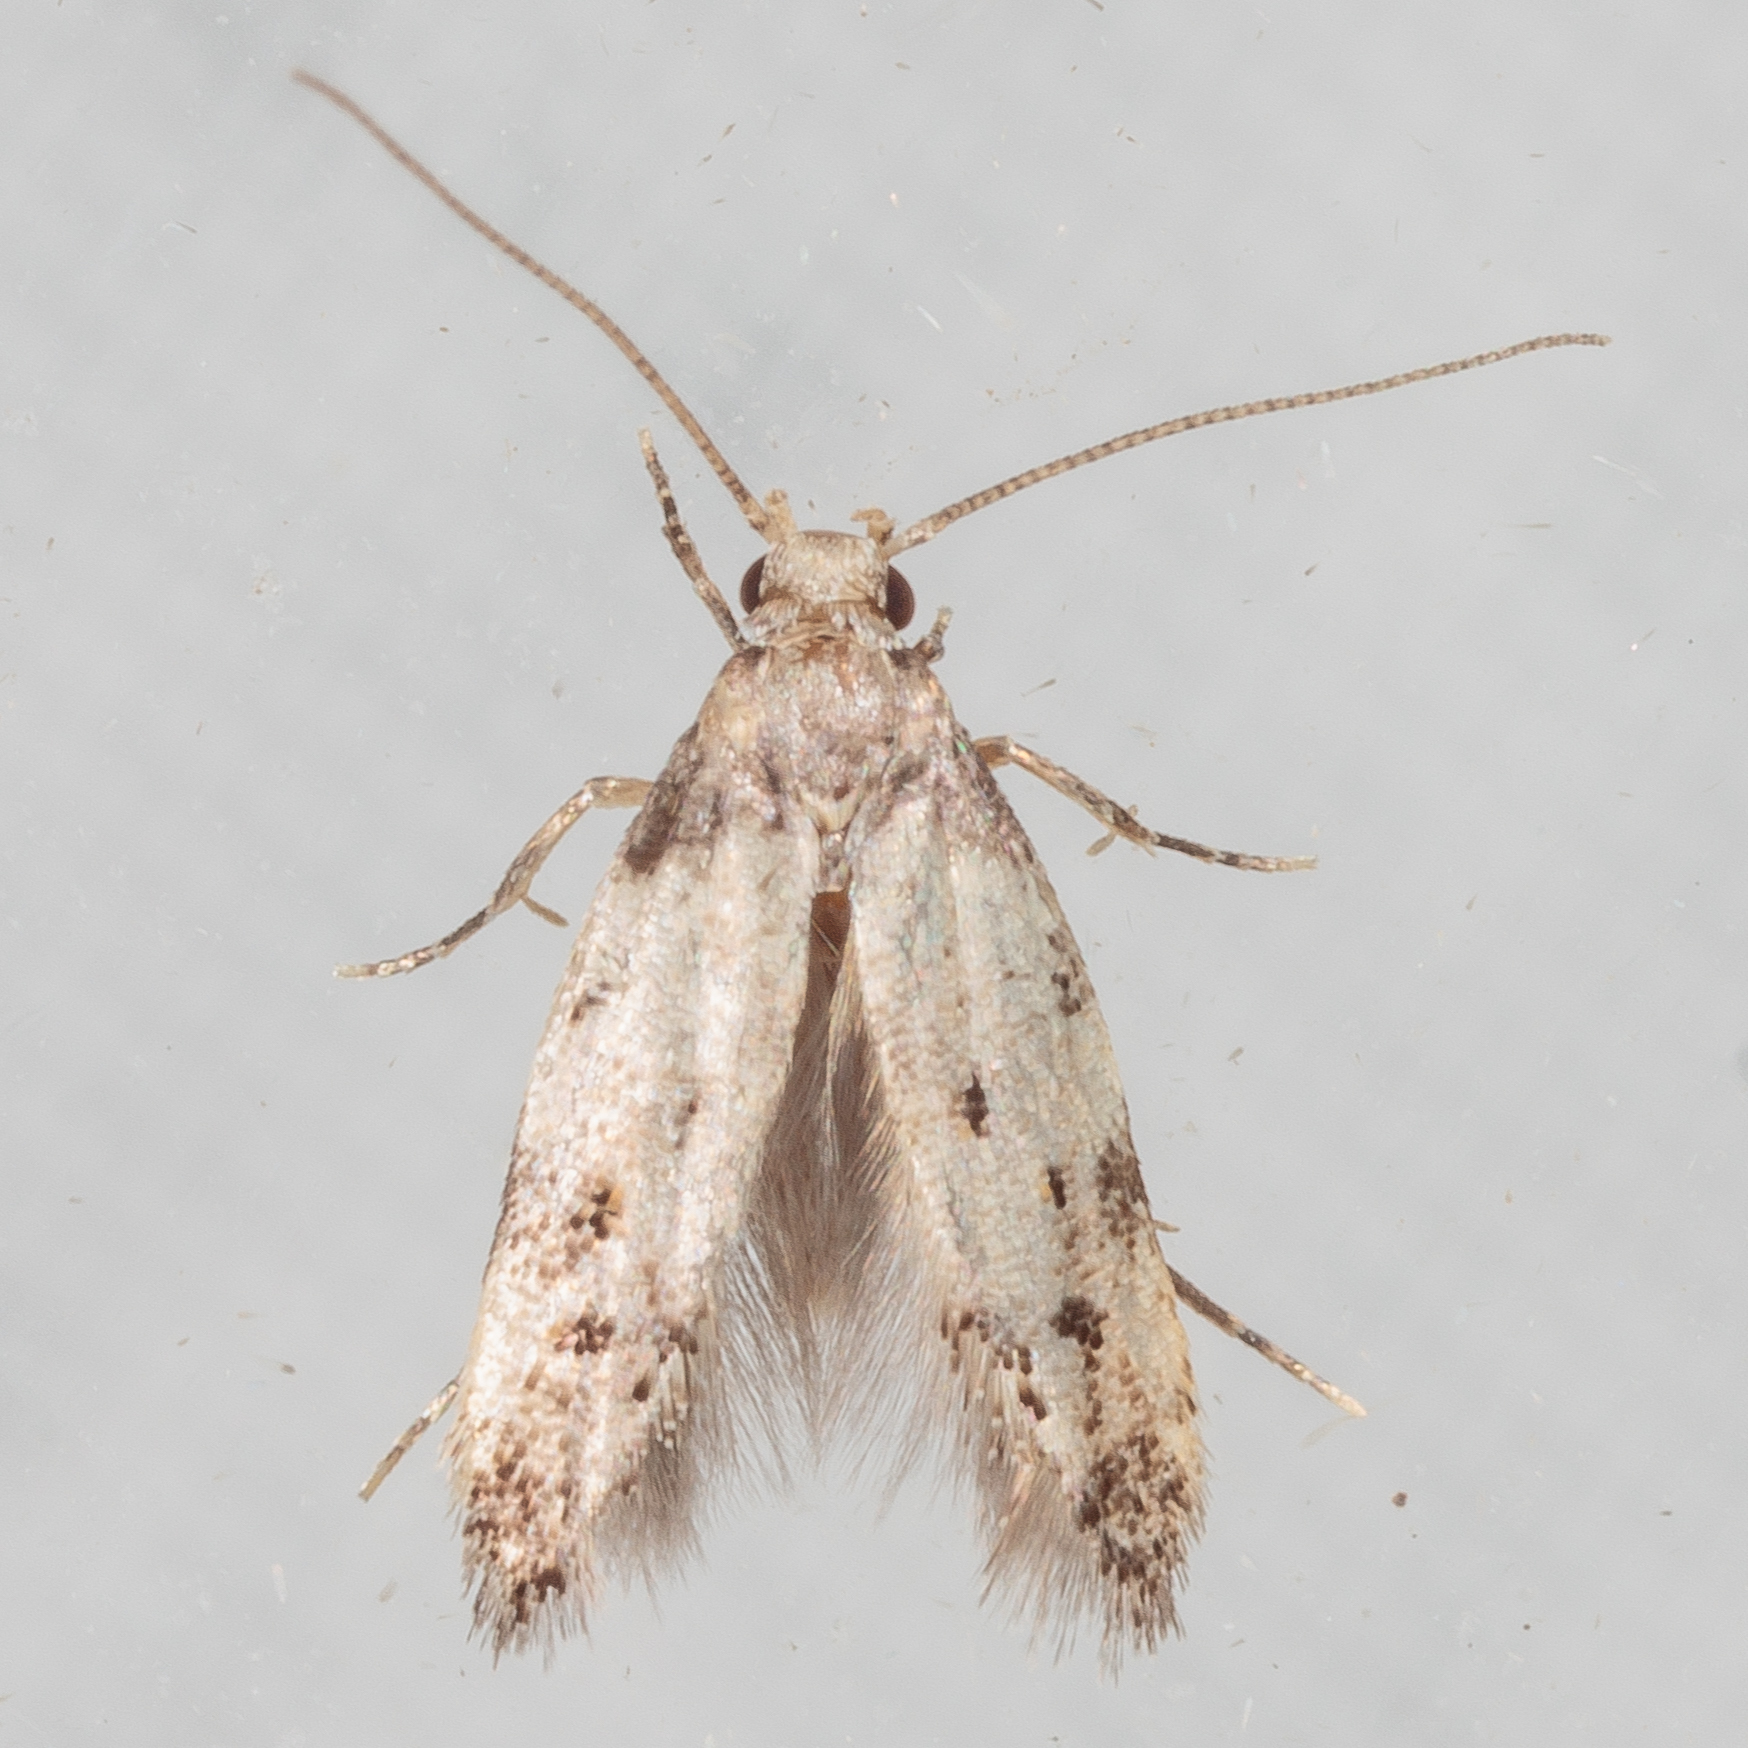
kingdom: Animalia
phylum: Arthropoda
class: Insecta
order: Lepidoptera
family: Autostichidae
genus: Taygete
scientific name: Taygete attributella
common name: Triangle-marked twirler moth
